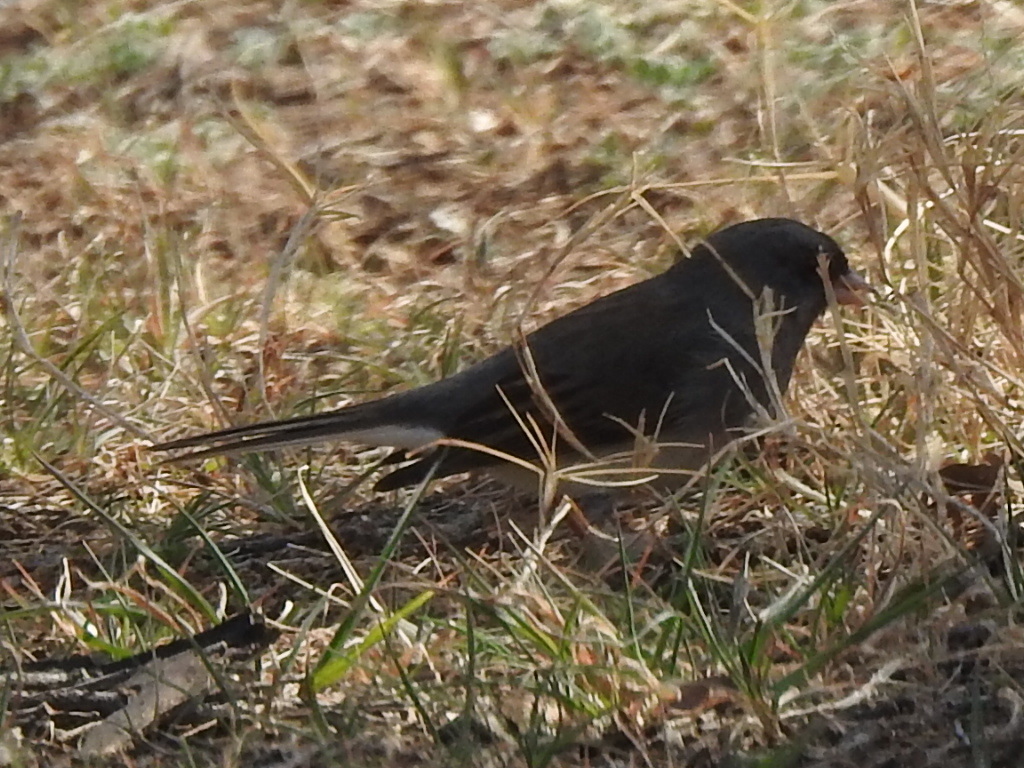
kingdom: Animalia
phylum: Chordata
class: Aves
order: Passeriformes
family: Passerellidae
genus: Junco
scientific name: Junco hyemalis
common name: Dark-eyed junco
